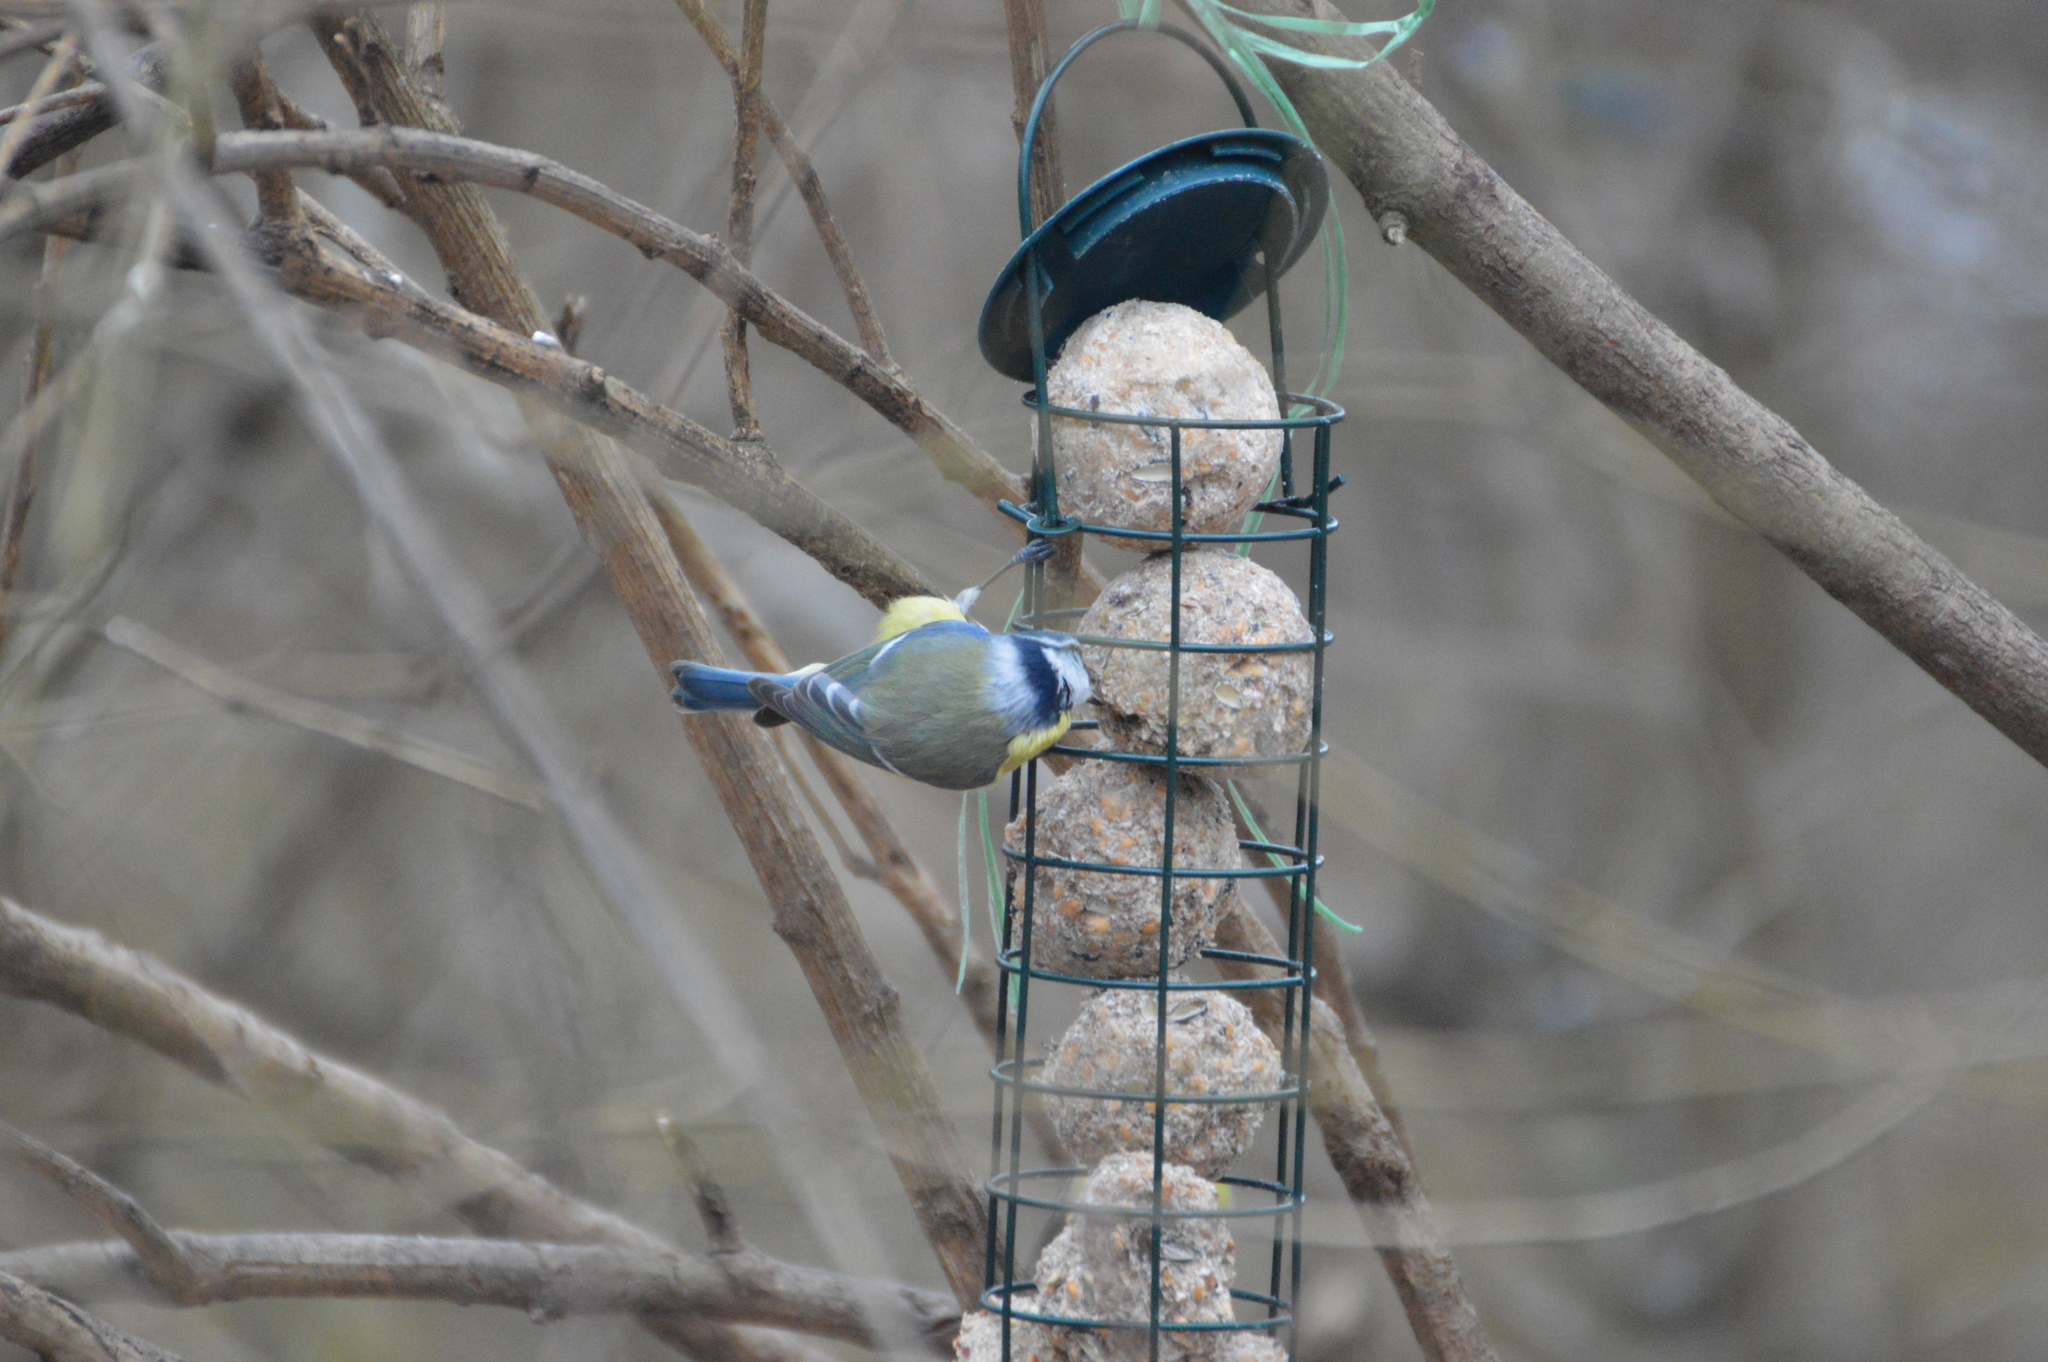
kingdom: Animalia
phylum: Chordata
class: Aves
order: Passeriformes
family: Paridae
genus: Cyanistes
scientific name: Cyanistes caeruleus
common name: Eurasian blue tit
